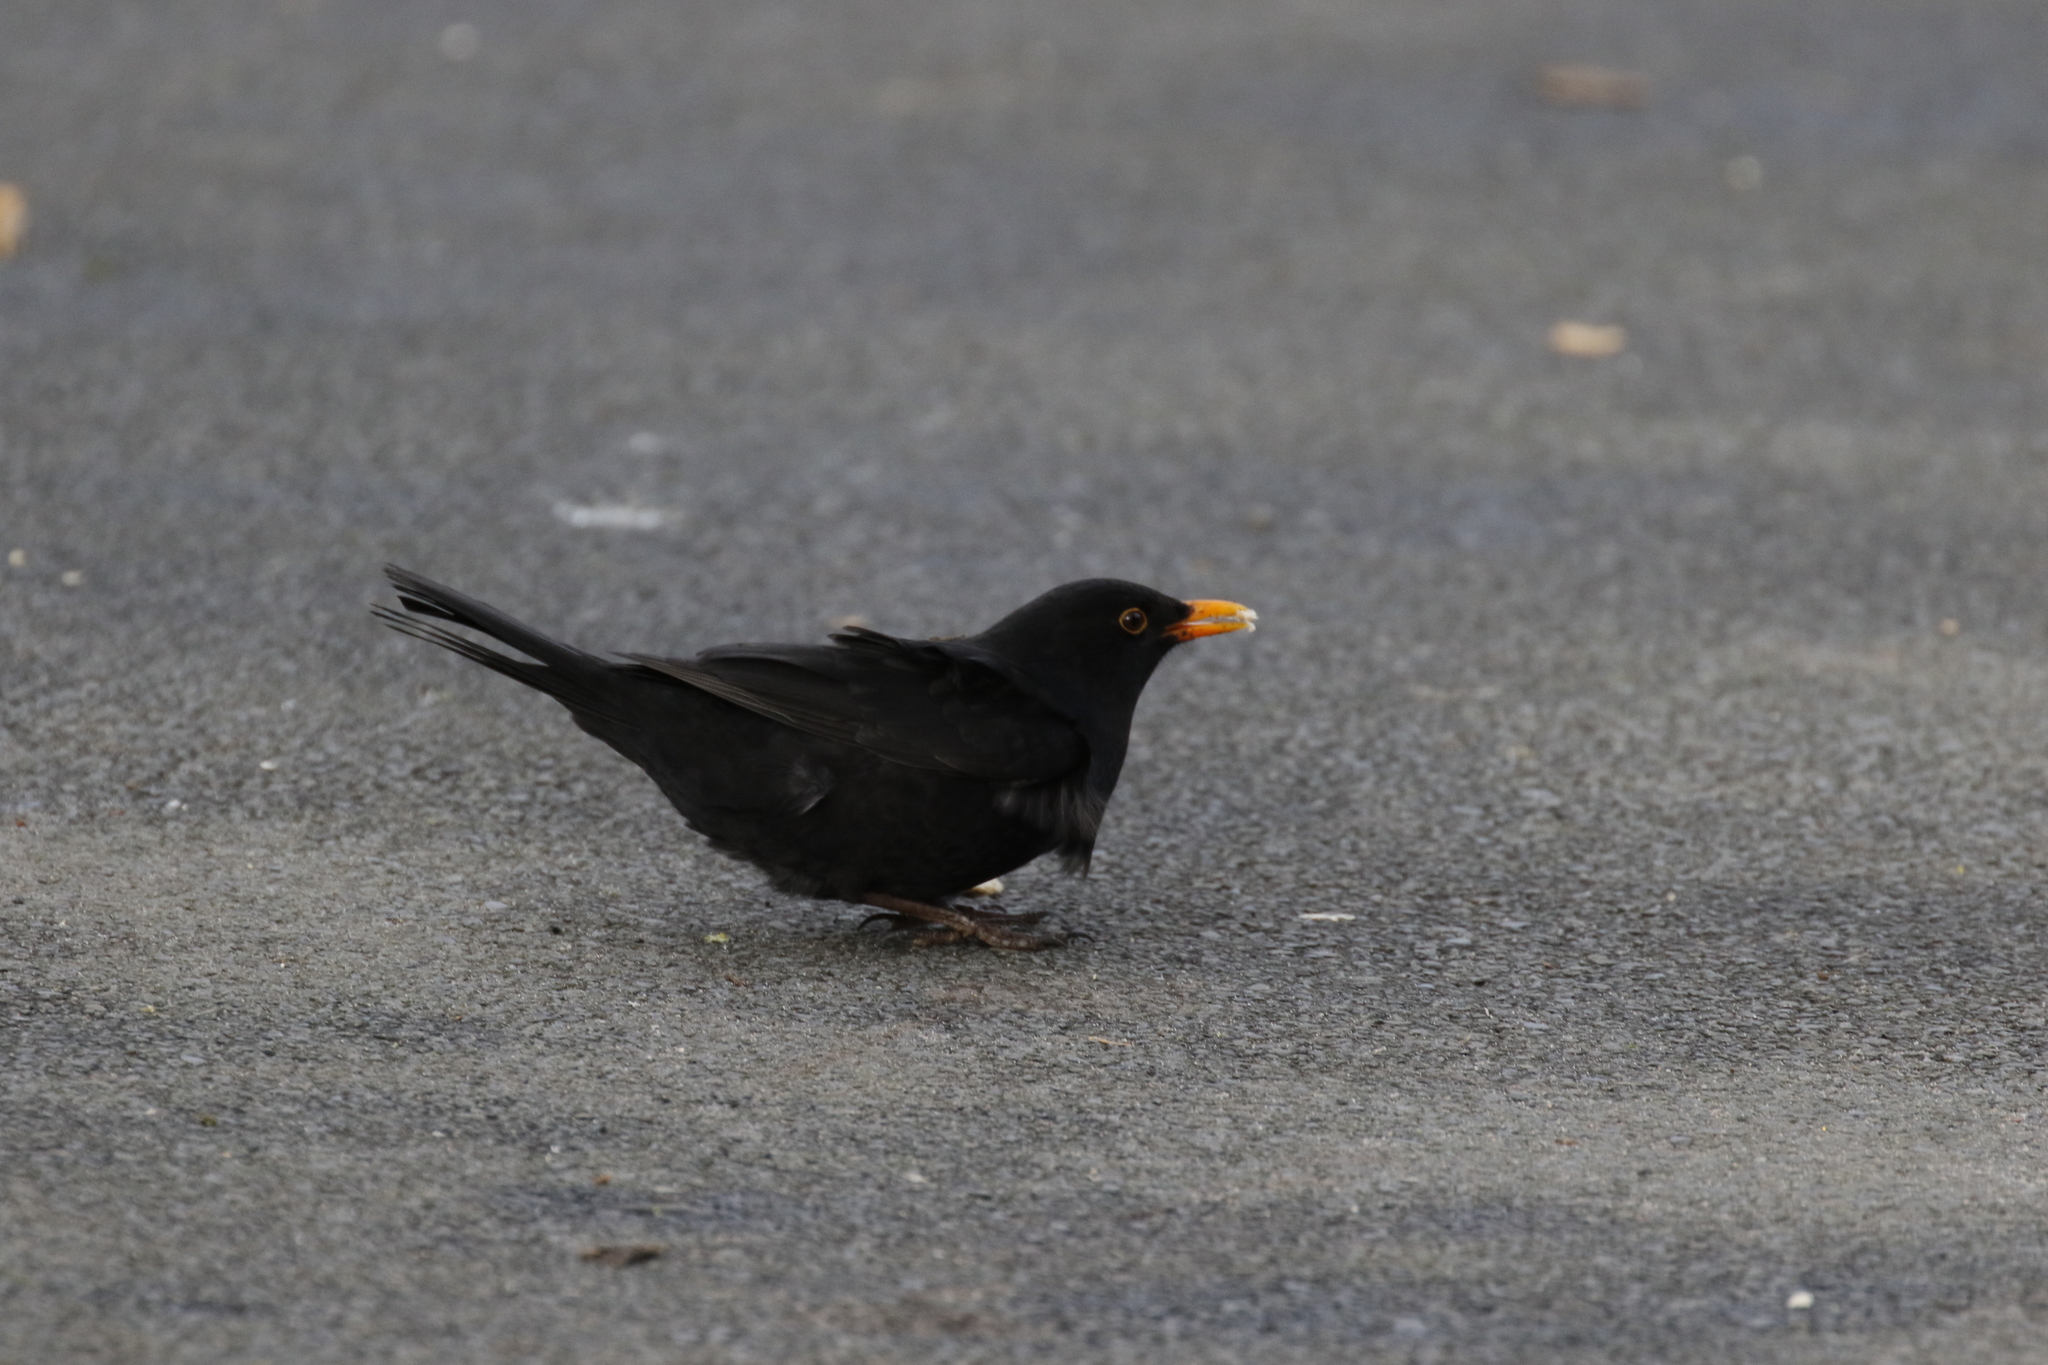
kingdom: Animalia
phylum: Chordata
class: Aves
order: Passeriformes
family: Turdidae
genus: Turdus
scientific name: Turdus merula
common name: Common blackbird
